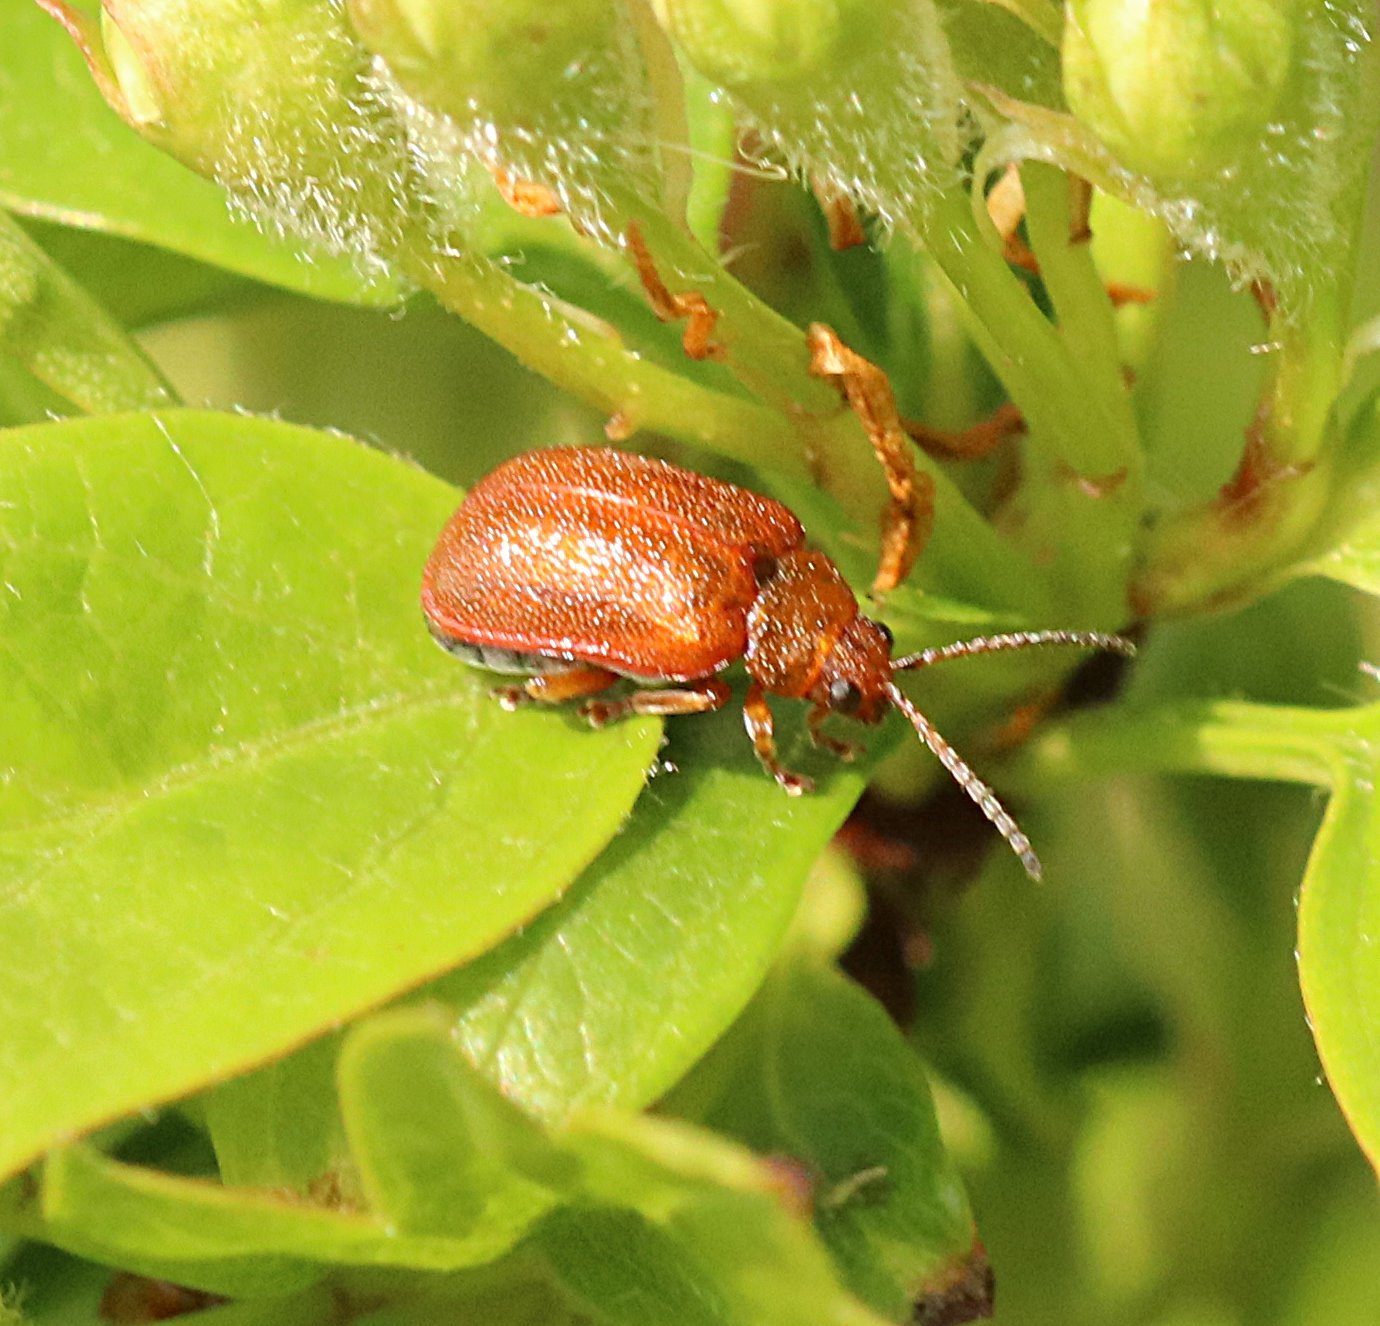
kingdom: Animalia
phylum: Arthropoda
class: Insecta
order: Coleoptera
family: Chrysomelidae
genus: Lochmaea
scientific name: Lochmaea crataegi
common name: Hawthorn leaf beetle
